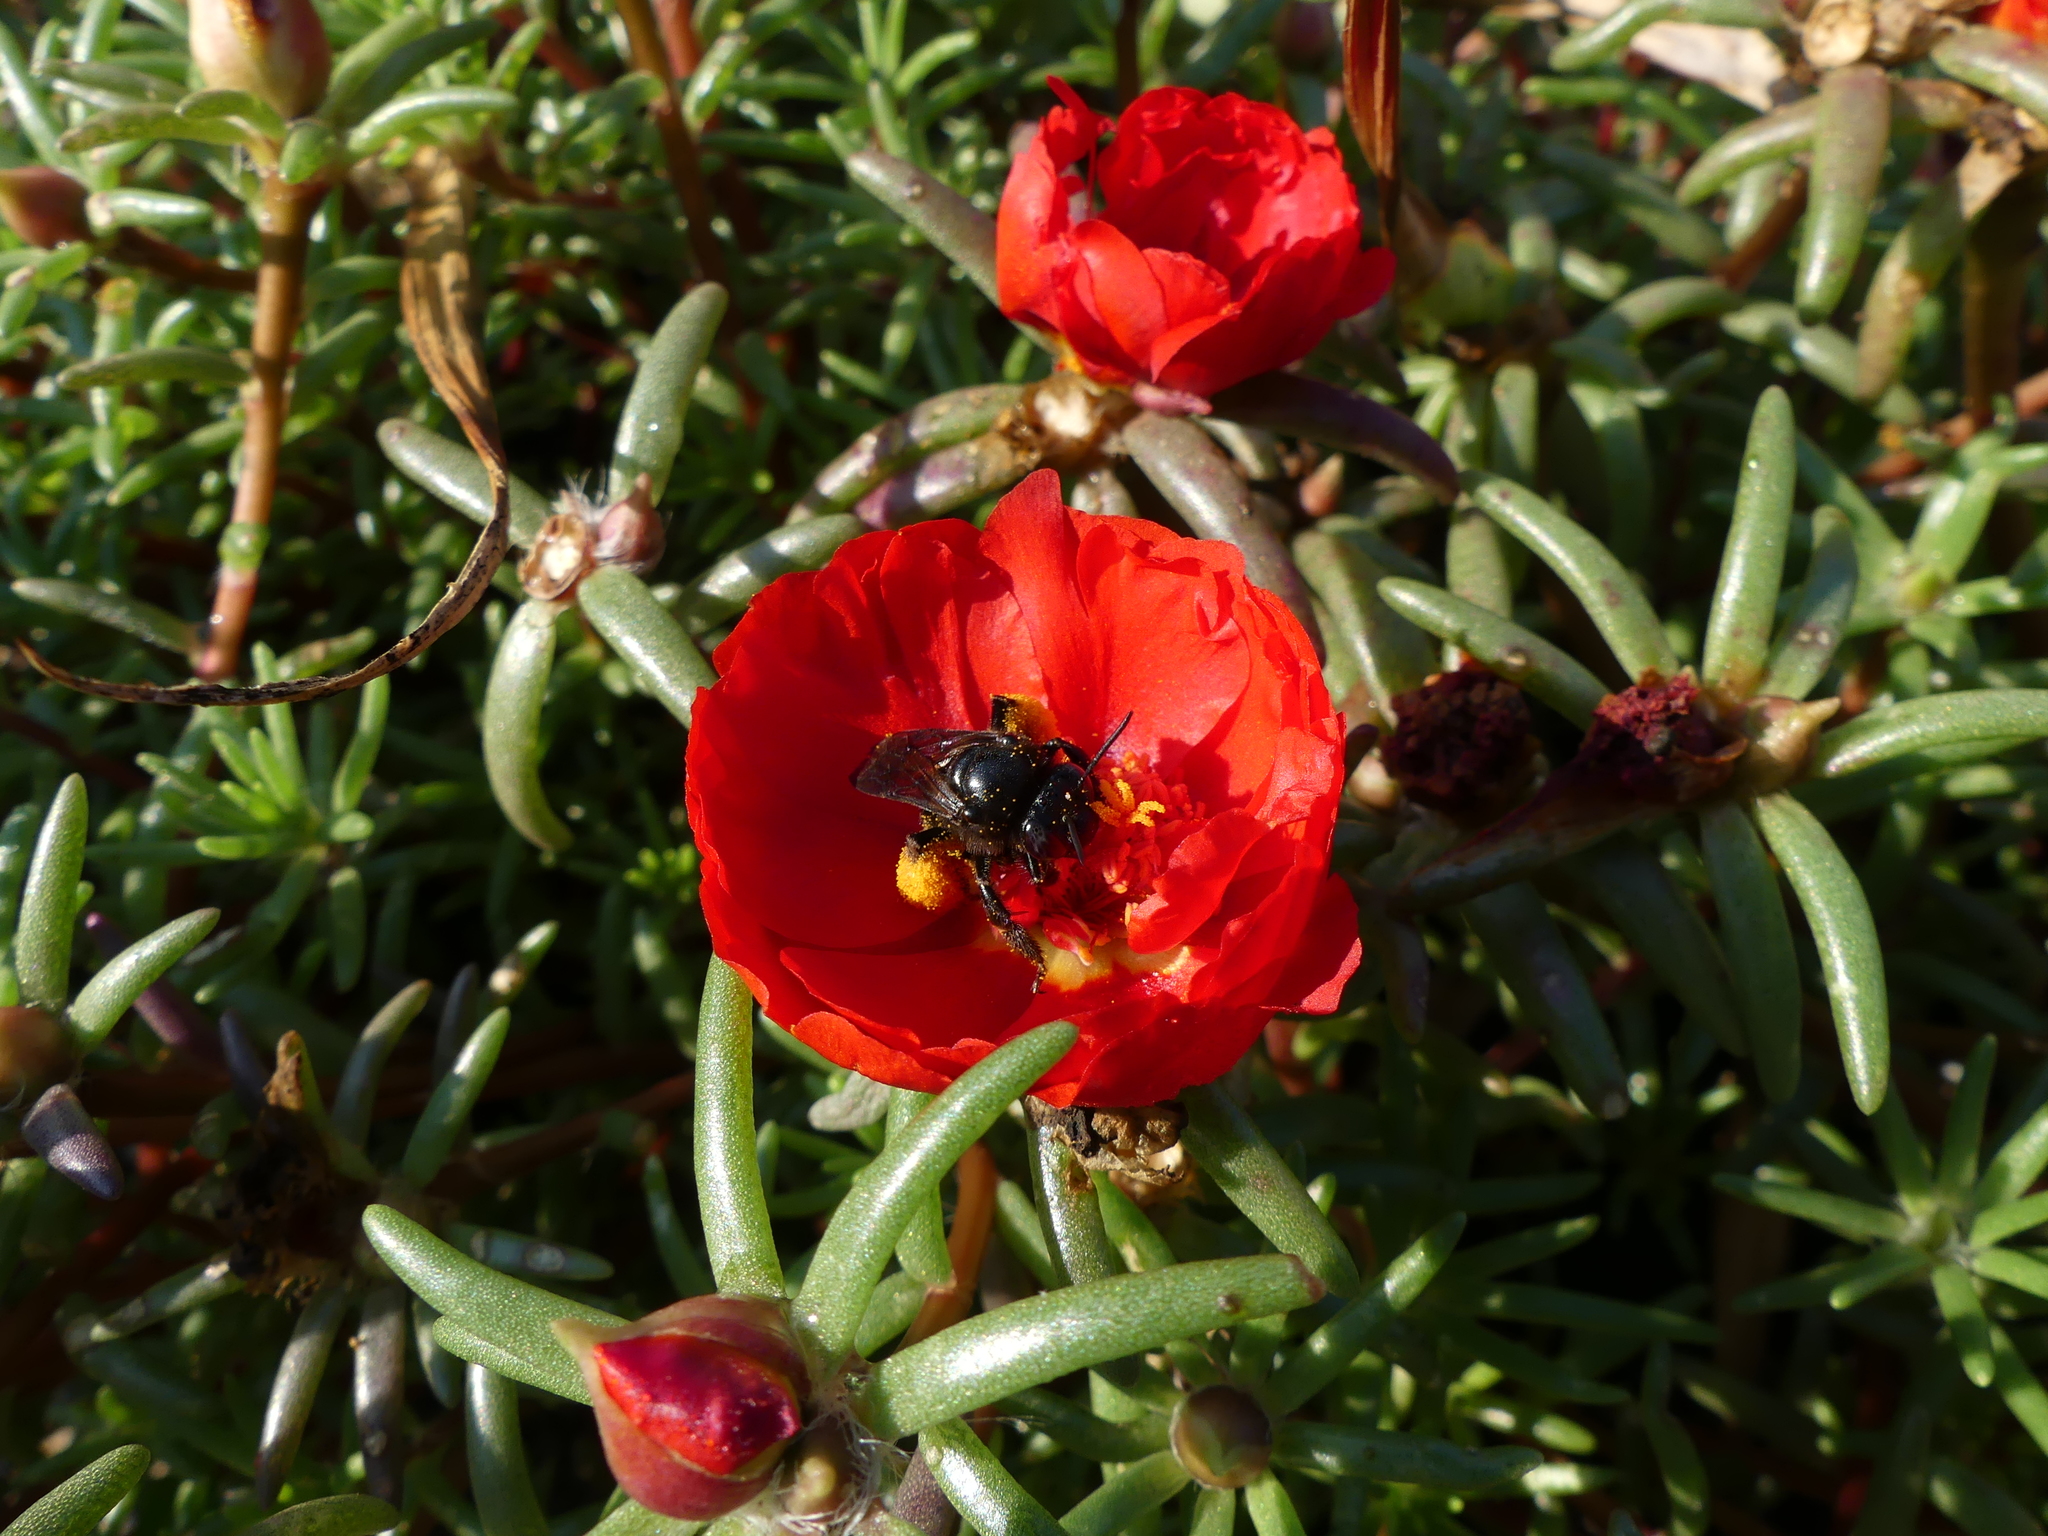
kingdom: Animalia
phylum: Arthropoda
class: Insecta
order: Hymenoptera
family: Apidae
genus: Melissodes
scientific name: Melissodes bimaculatus
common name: Two-spotted long-horned bee
